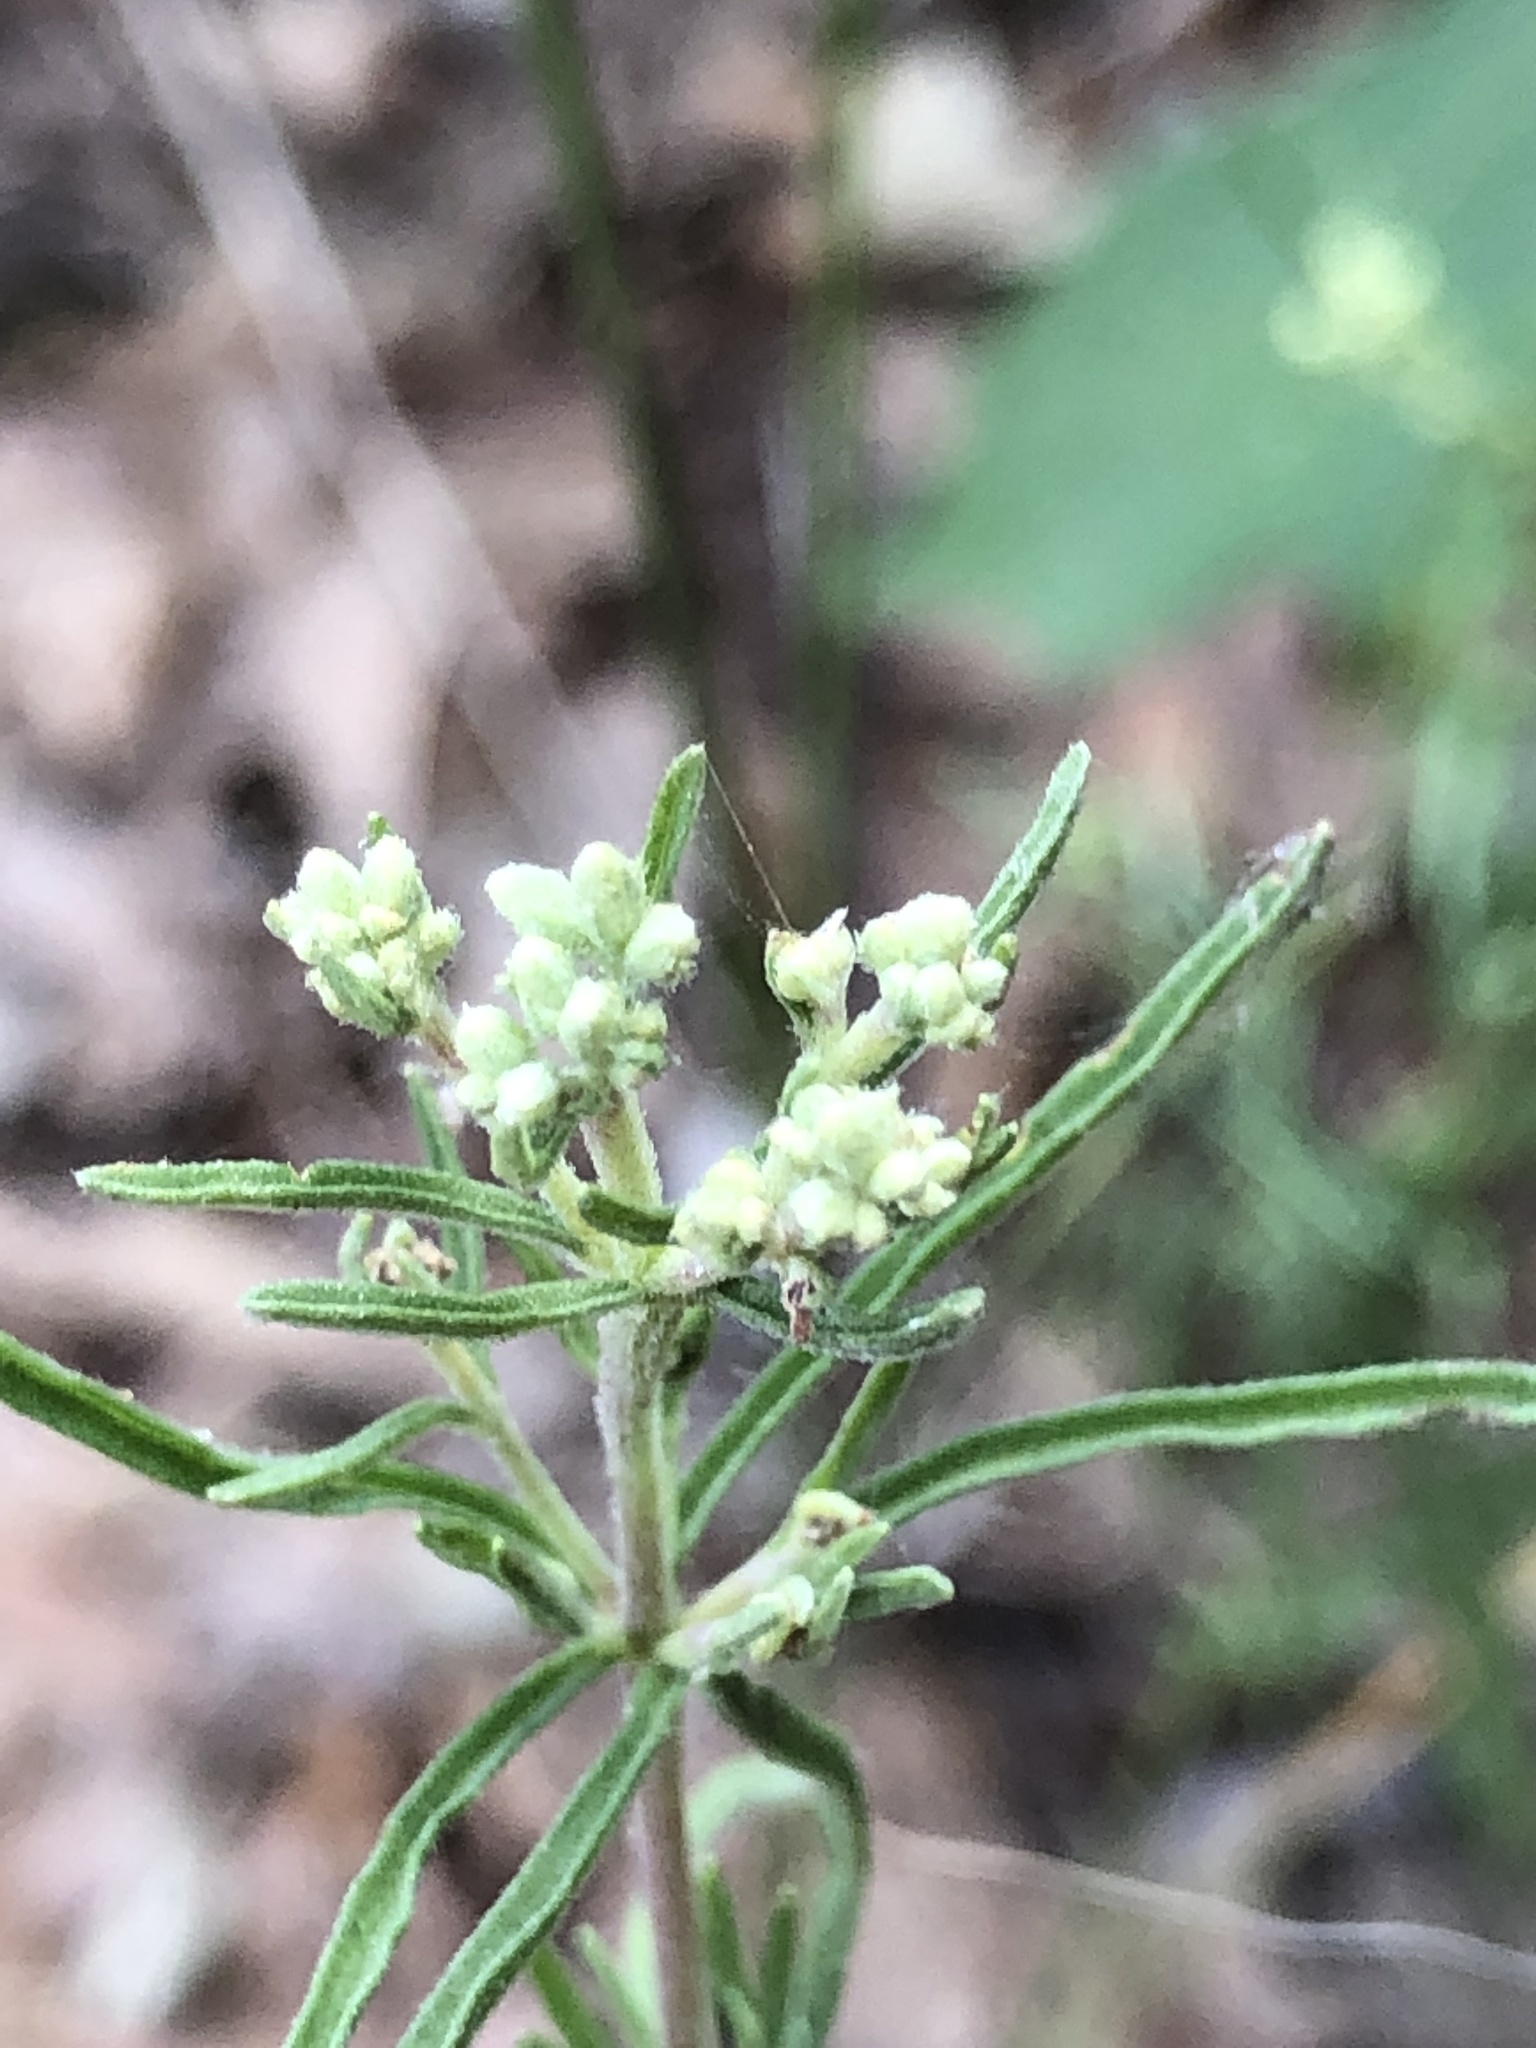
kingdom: Plantae
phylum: Tracheophyta
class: Magnoliopsida
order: Asterales
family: Asteraceae
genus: Eupatorium
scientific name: Eupatorium hyssopifolium
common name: Hyssop-leaf thoroughwort
